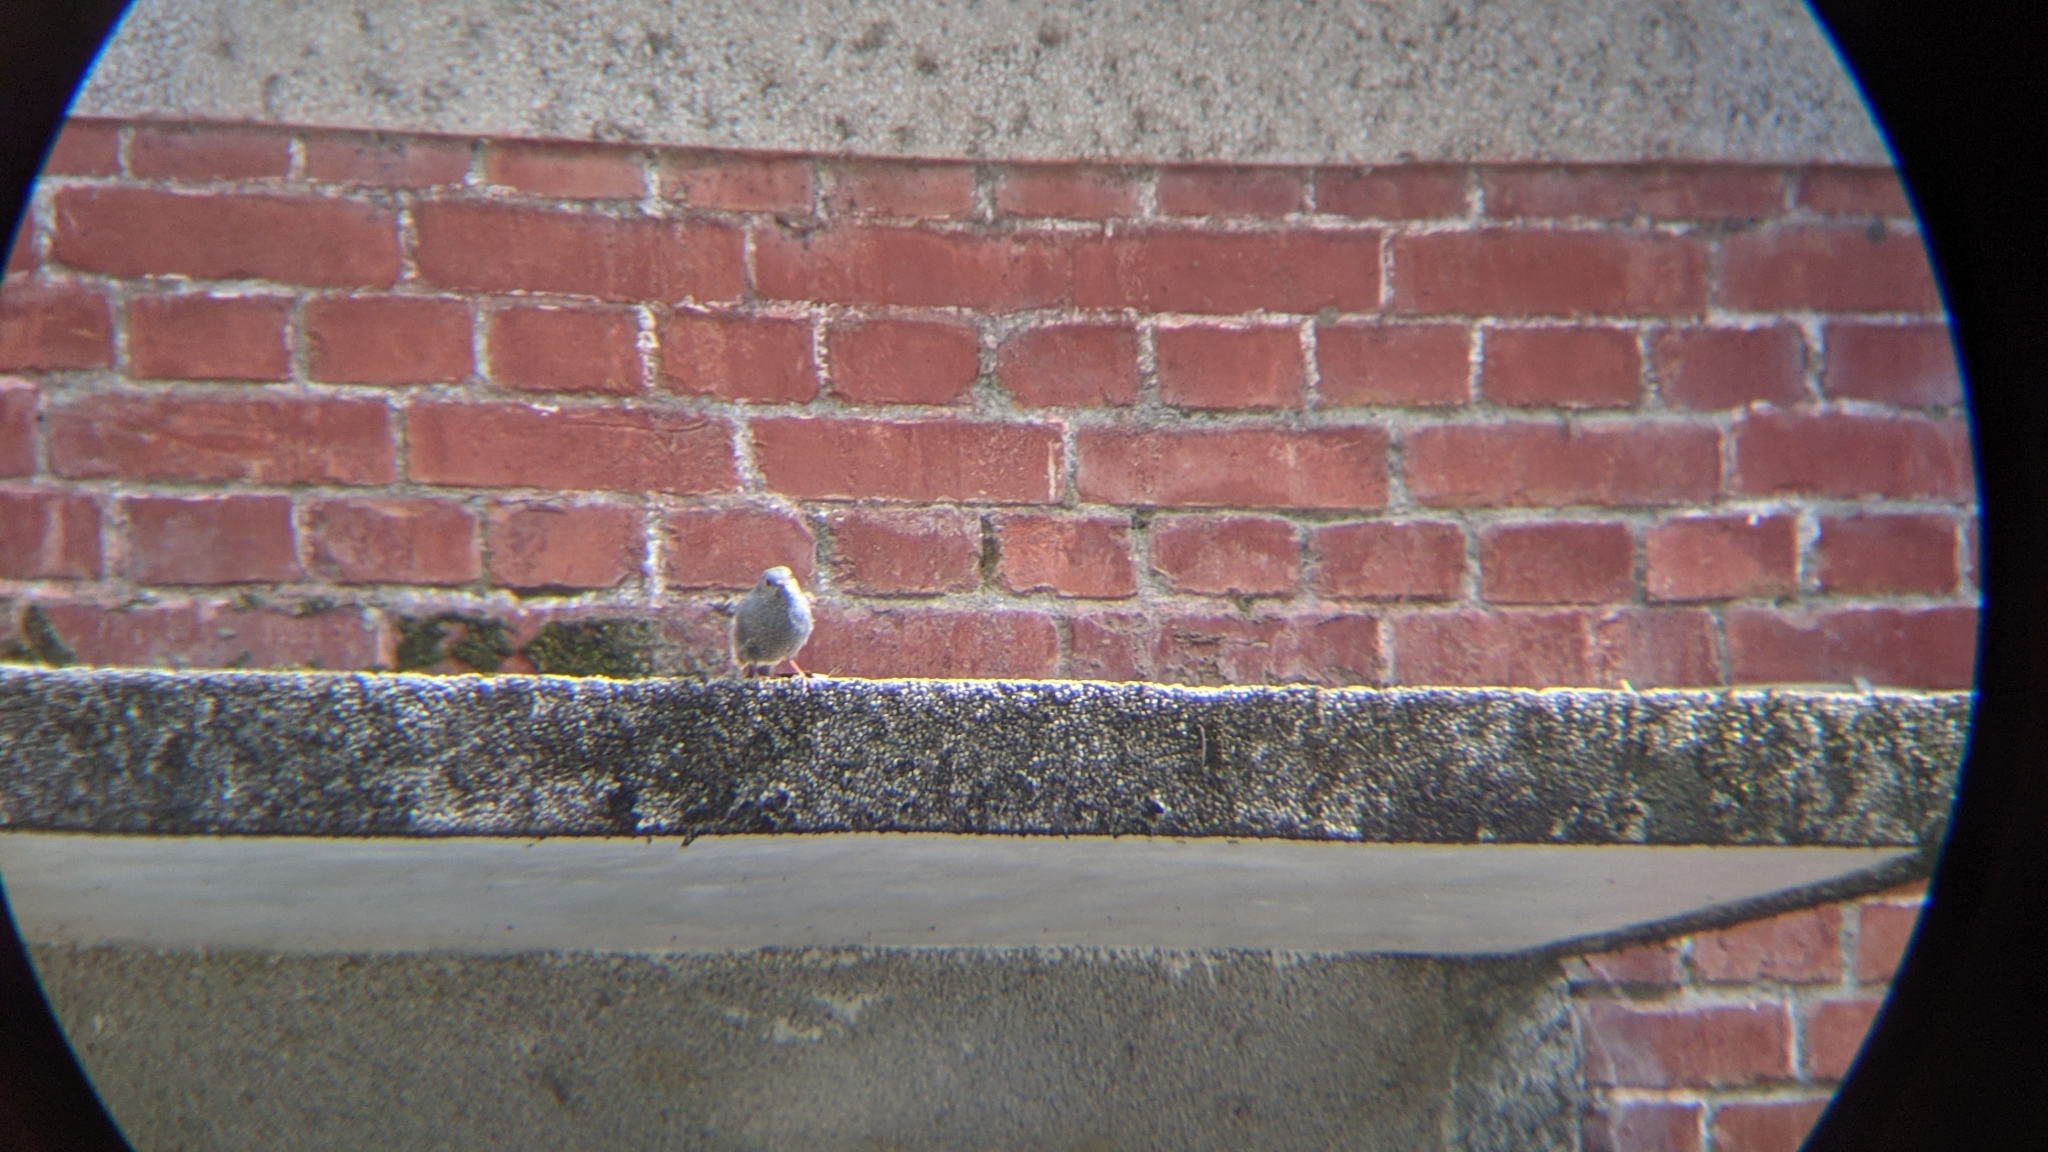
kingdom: Animalia
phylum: Chordata
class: Aves
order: Passeriformes
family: Muscicapidae
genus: Phoenicurus
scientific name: Phoenicurus fuliginosus
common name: Plumbeous water redstart
